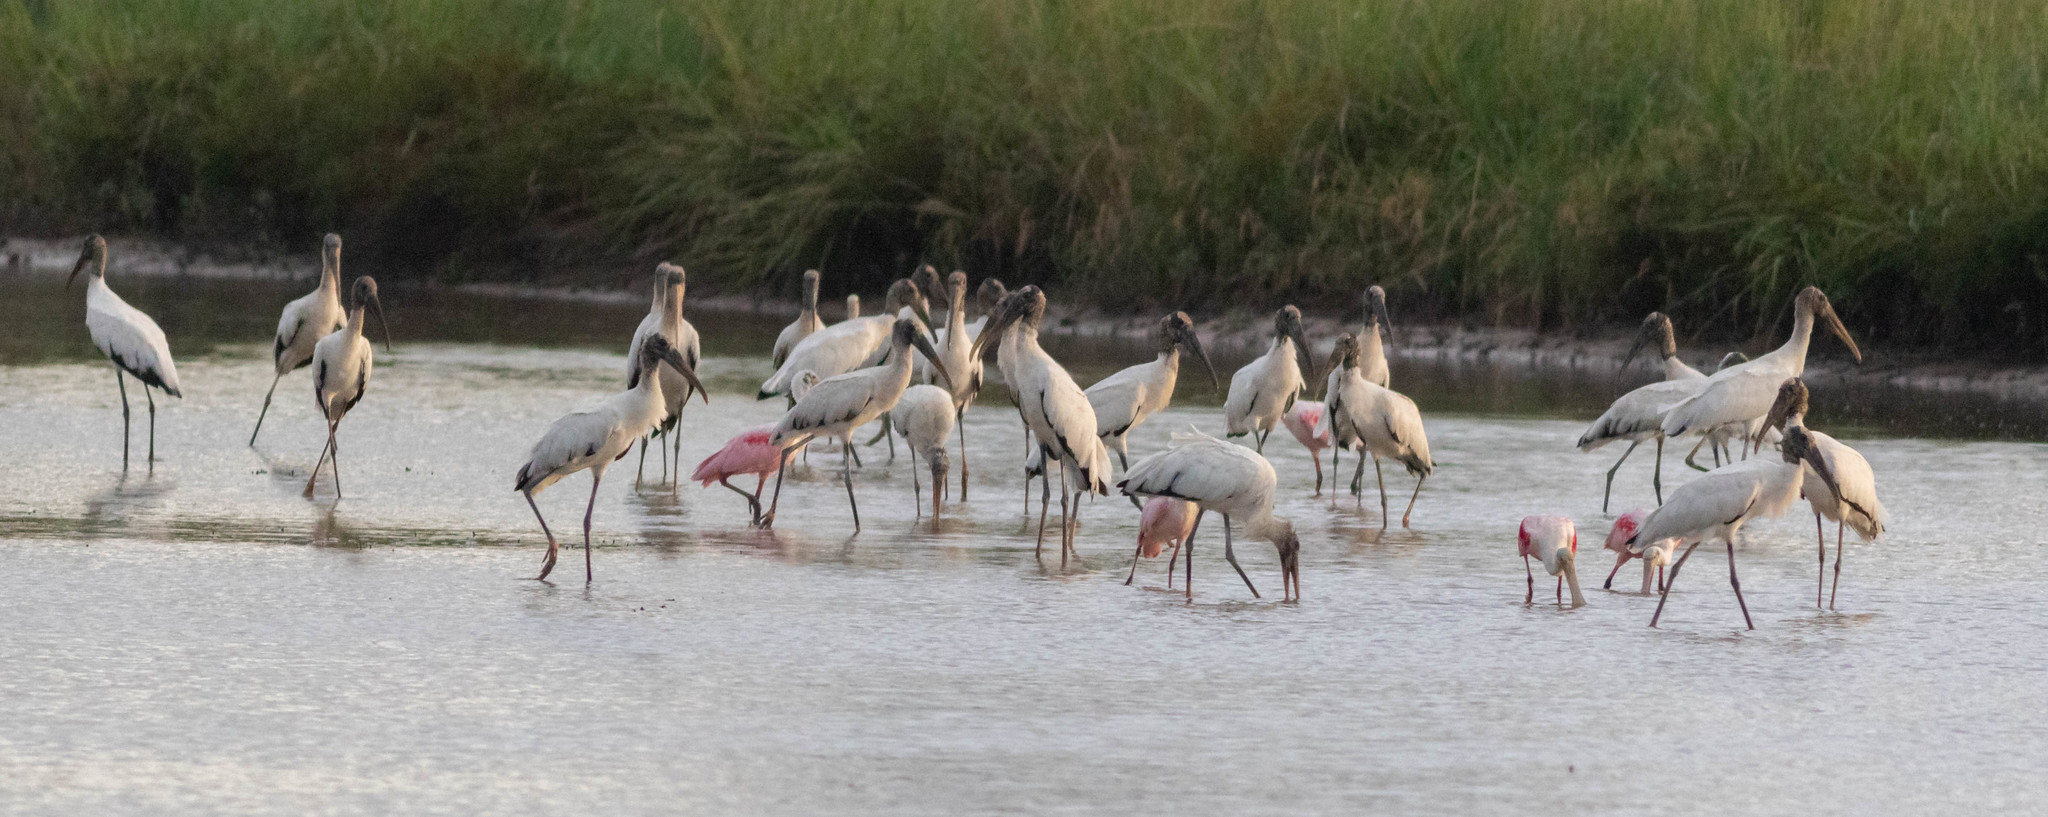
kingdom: Animalia
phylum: Chordata
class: Aves
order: Ciconiiformes
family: Ciconiidae
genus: Mycteria
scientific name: Mycteria americana
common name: Wood stork
